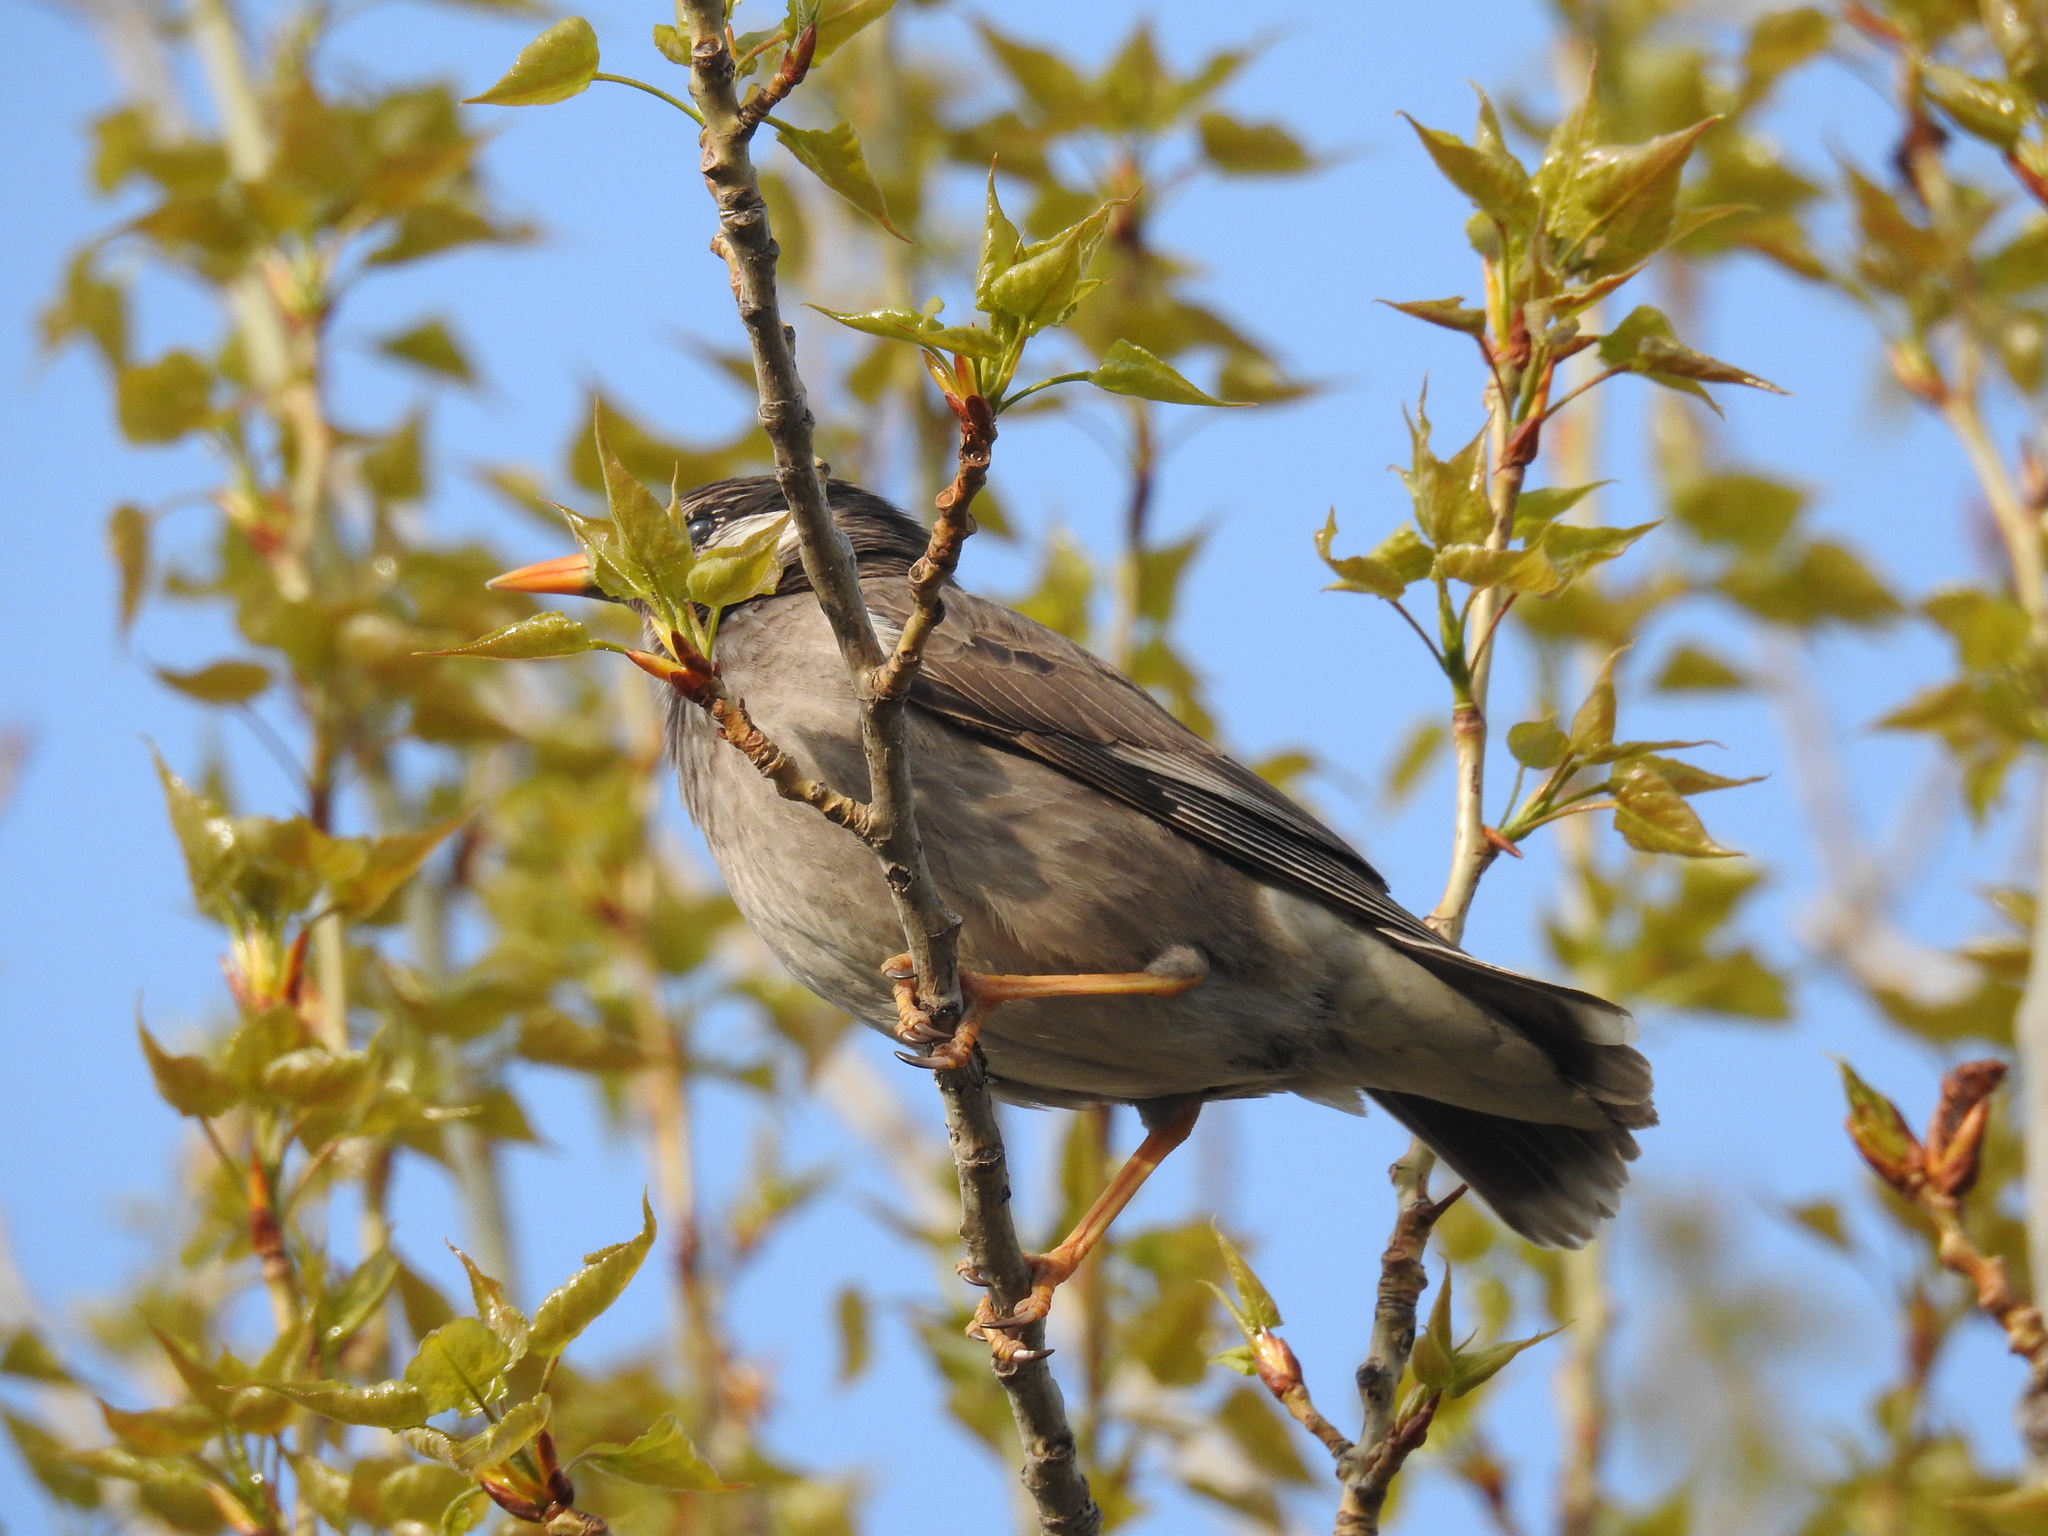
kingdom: Animalia
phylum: Chordata
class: Aves
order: Passeriformes
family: Sturnidae
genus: Spodiopsar
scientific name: Spodiopsar cineraceus
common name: White-cheeked starling
